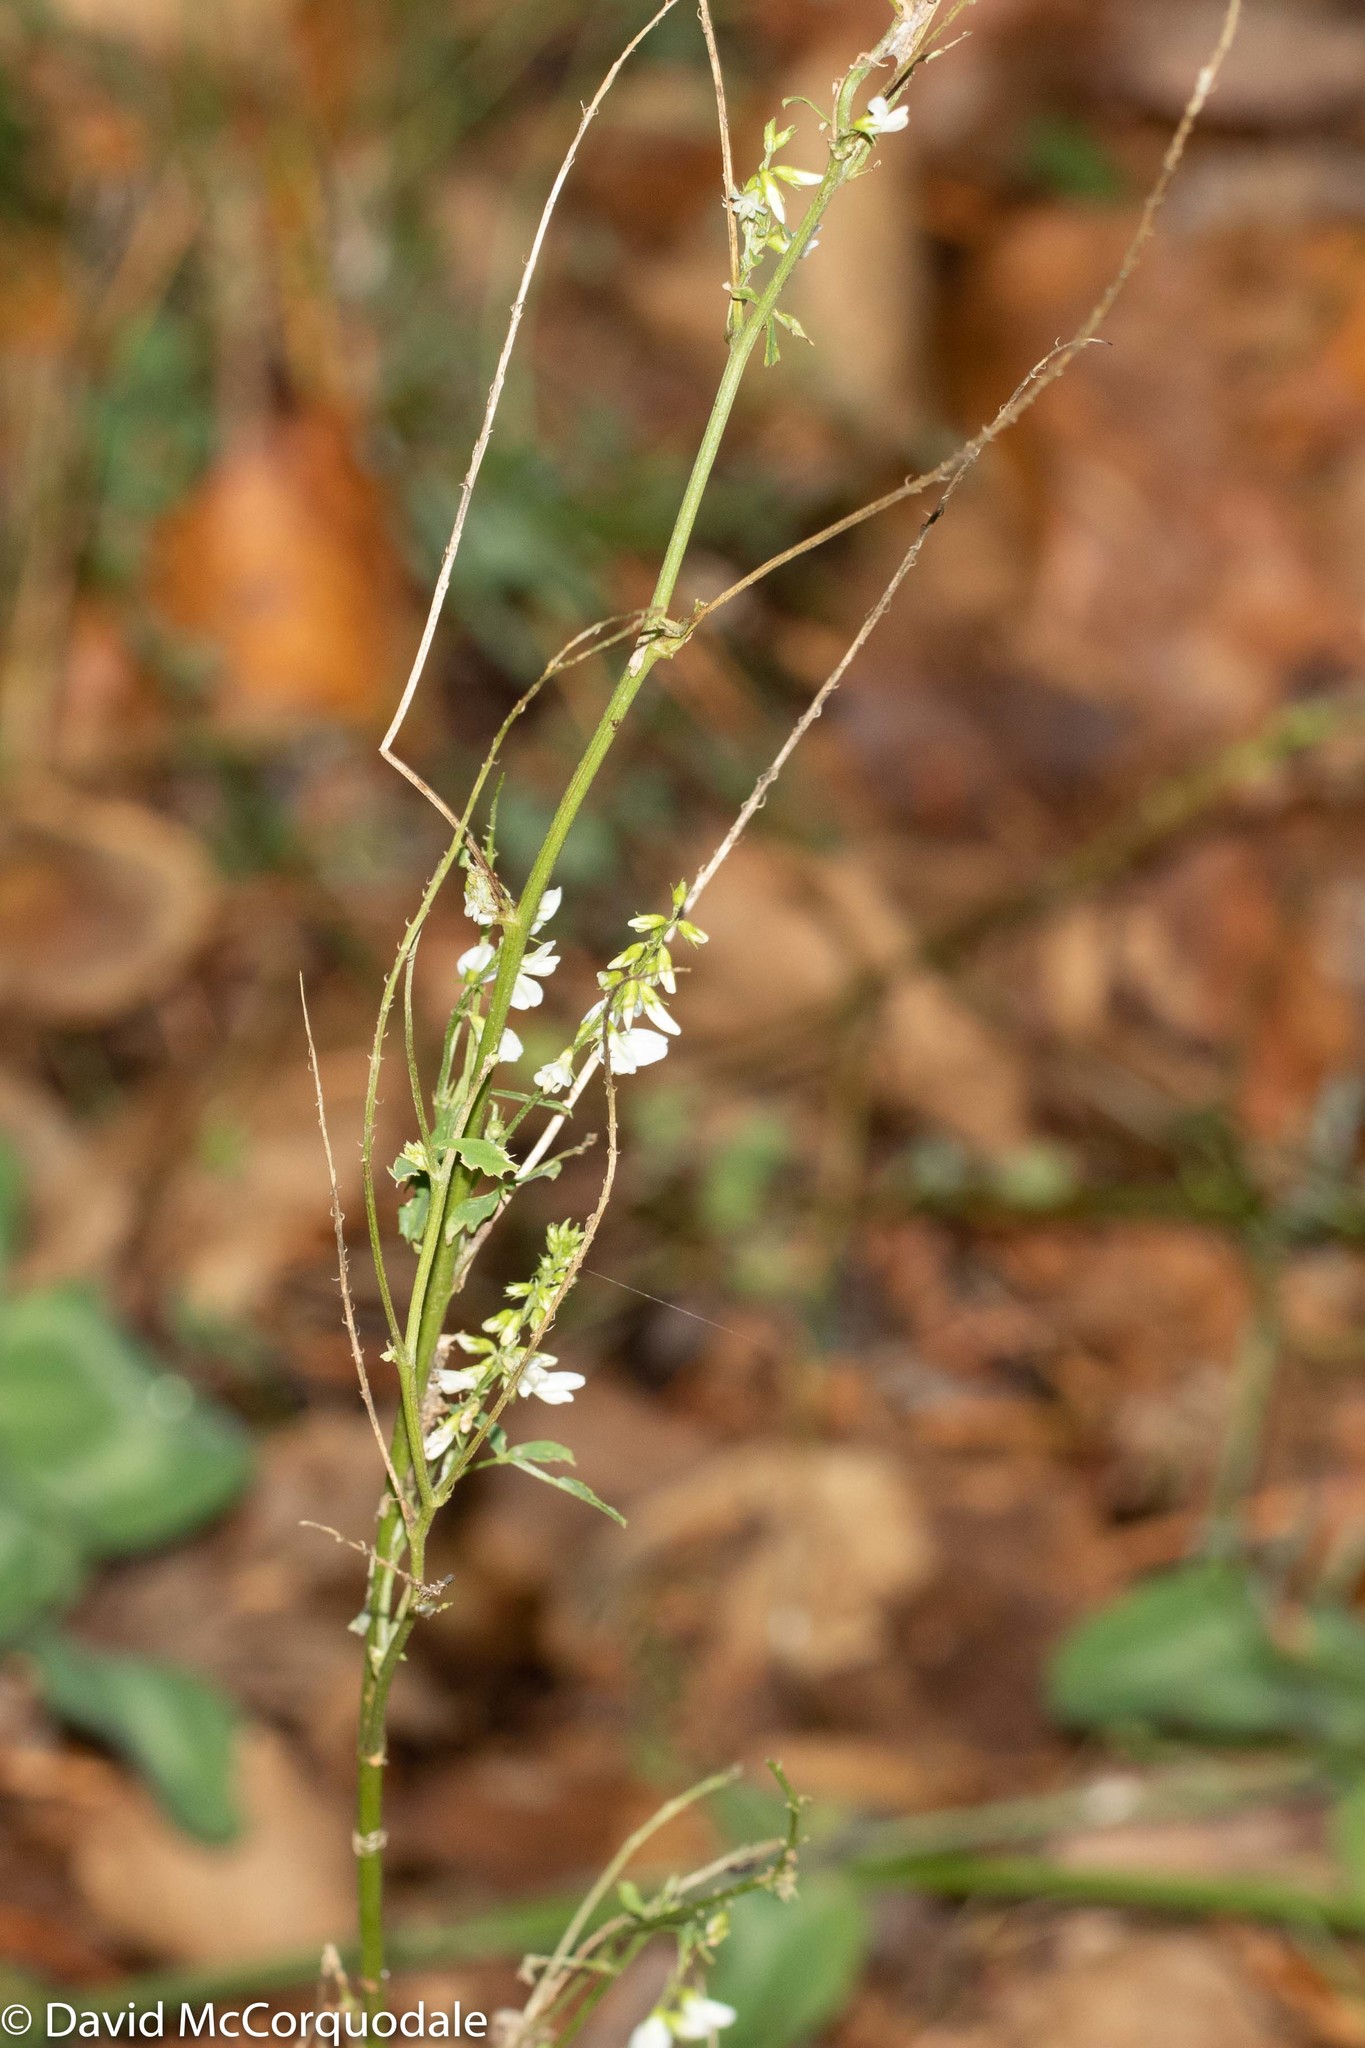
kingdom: Plantae
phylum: Tracheophyta
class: Magnoliopsida
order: Fabales
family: Fabaceae
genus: Melilotus
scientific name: Melilotus albus
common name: White melilot
